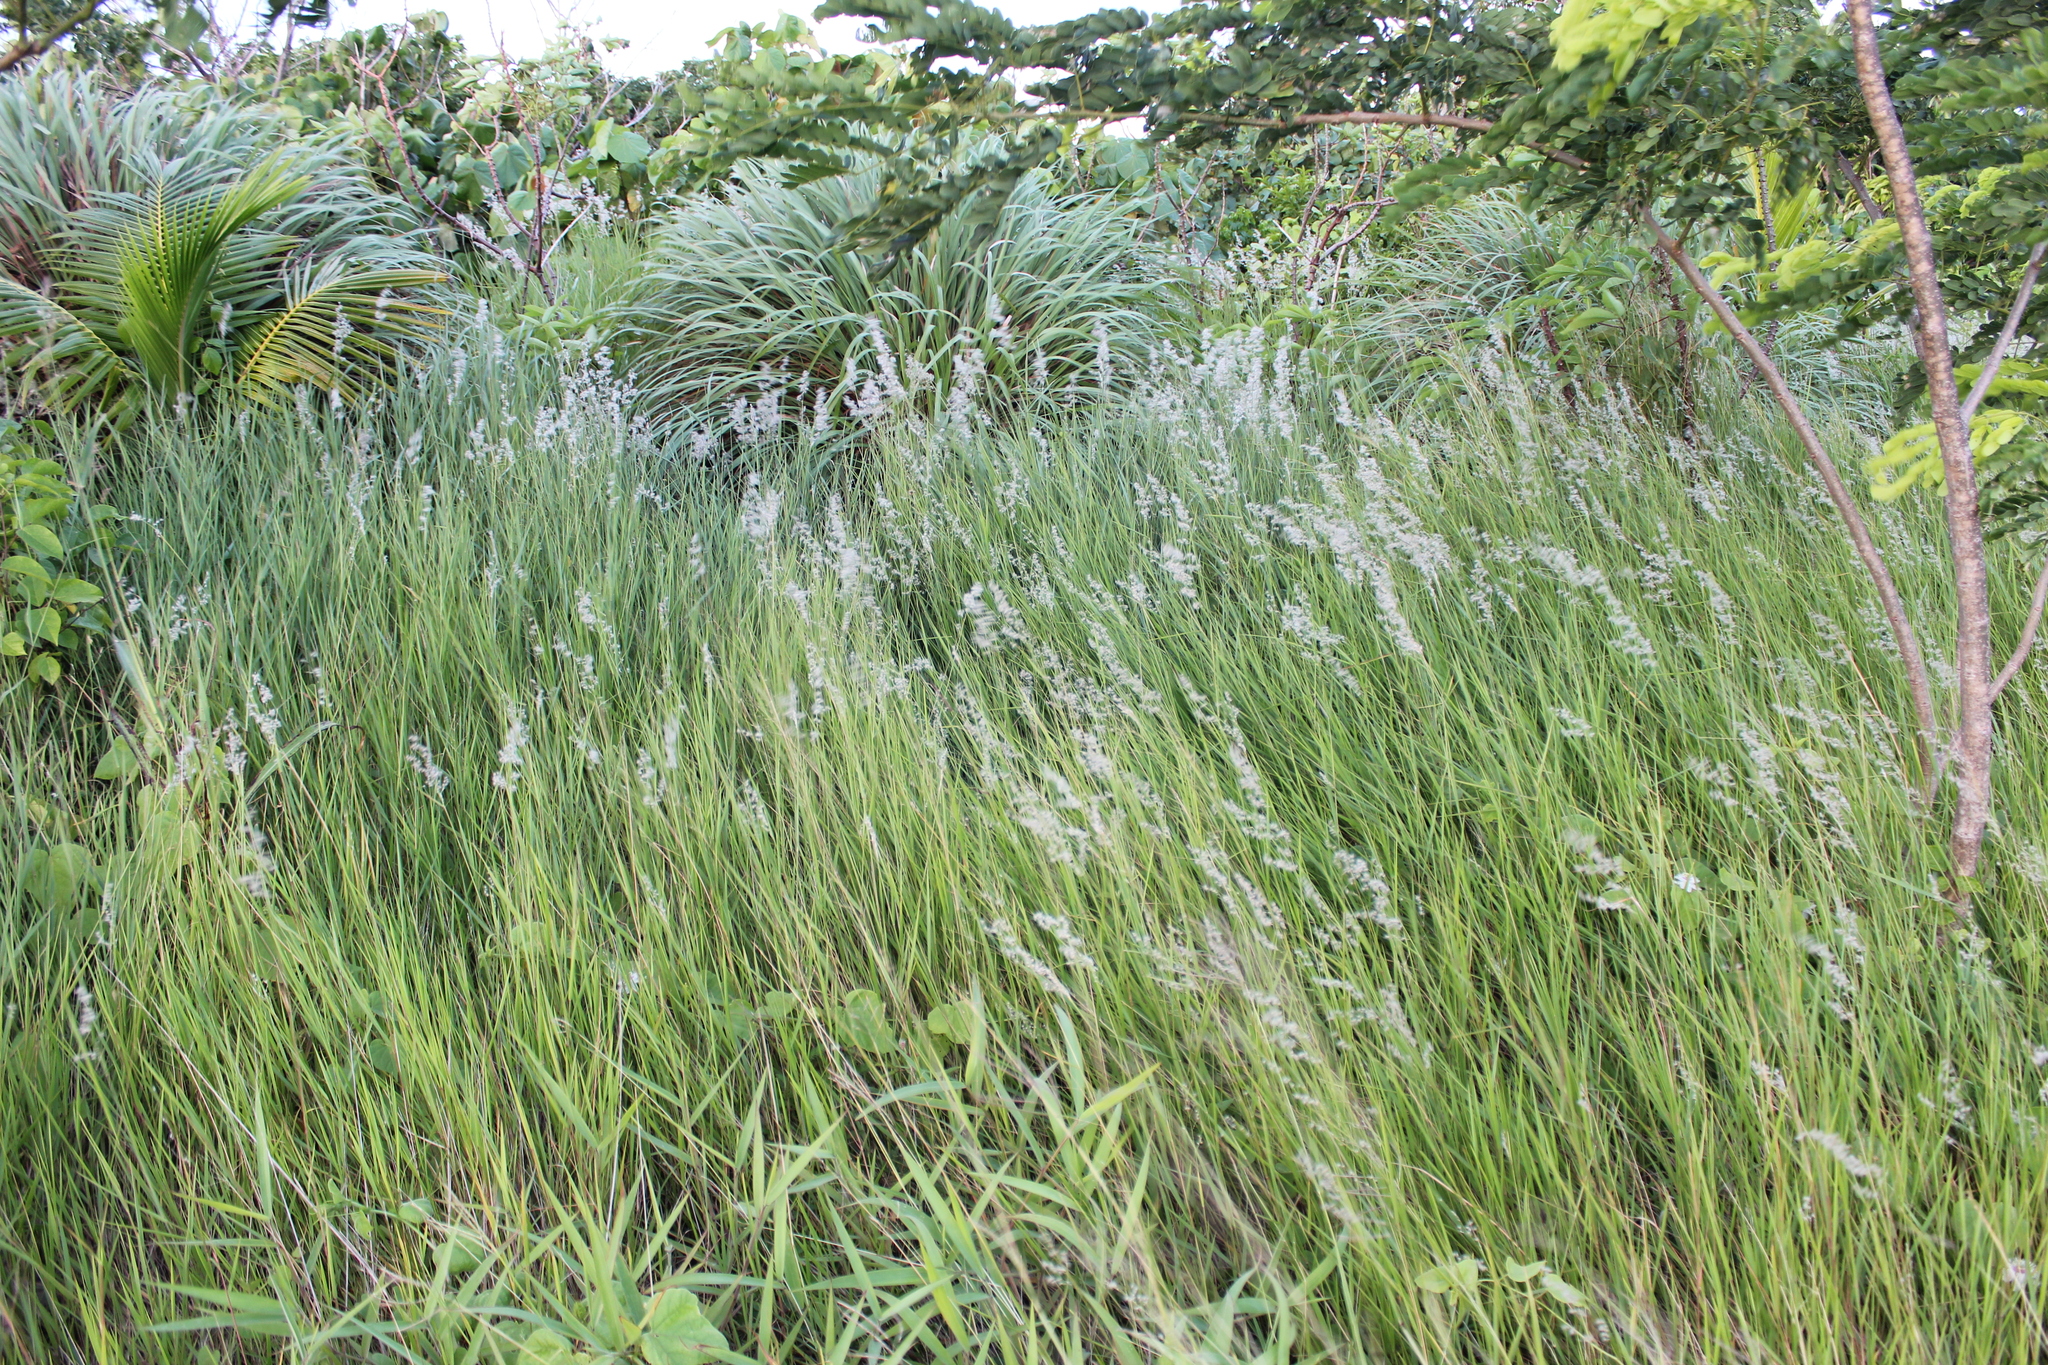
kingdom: Plantae
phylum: Tracheophyta
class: Liliopsida
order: Poales
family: Poaceae
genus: Melinis
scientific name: Melinis repens
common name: Rose natal grass
